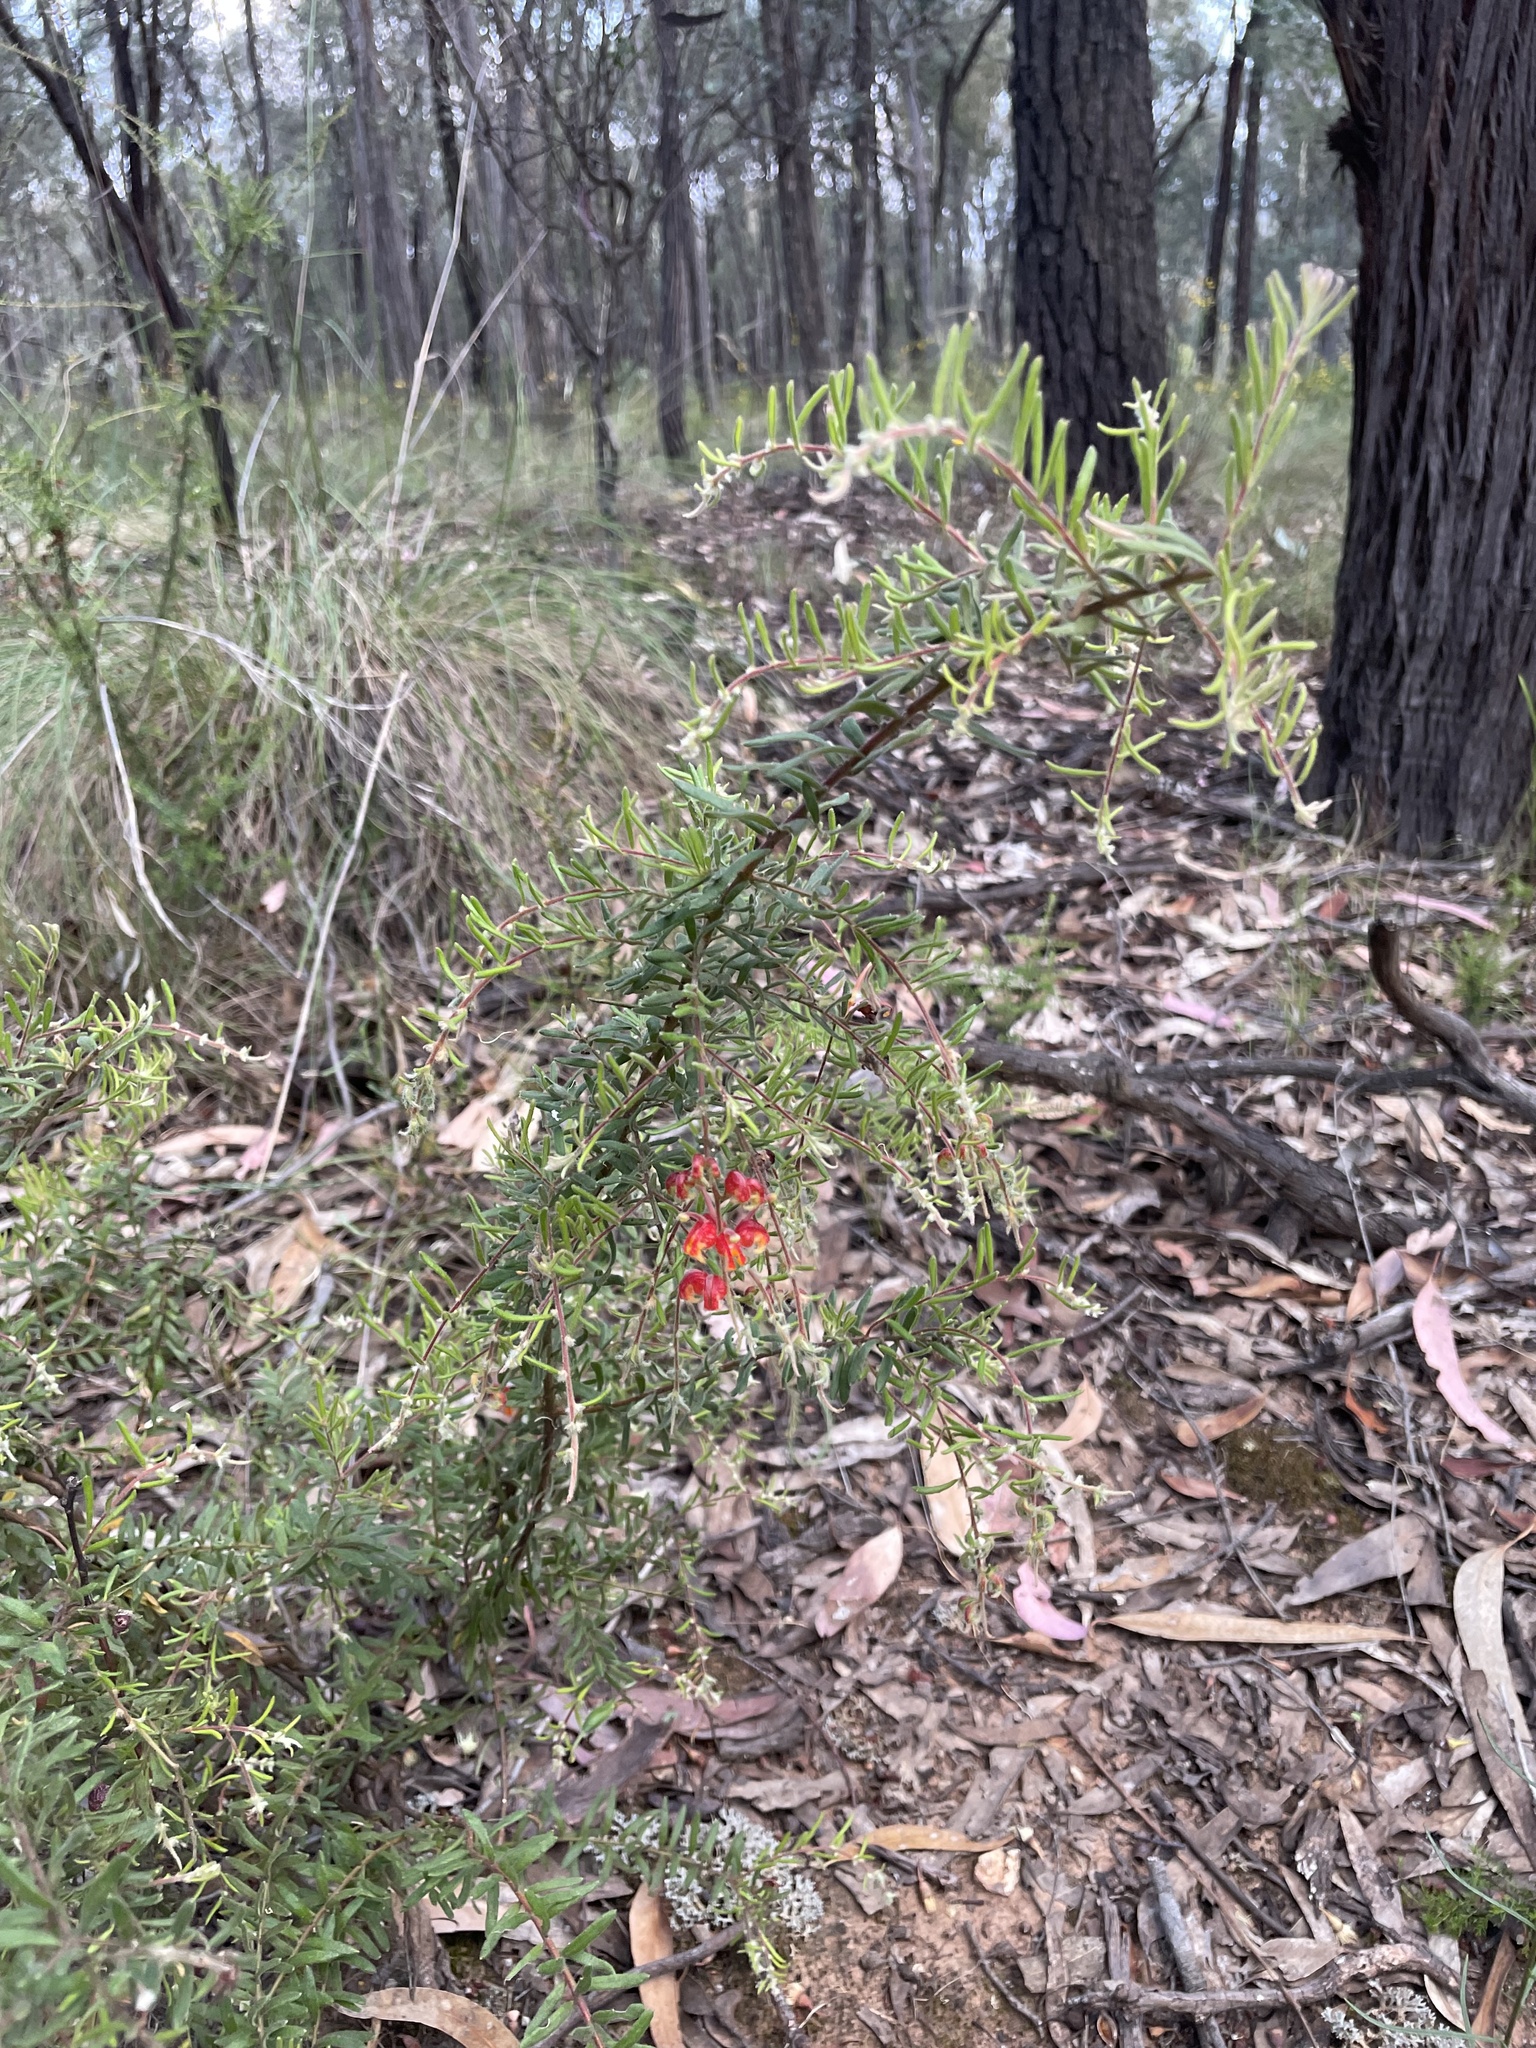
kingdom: Plantae
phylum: Tracheophyta
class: Magnoliopsida
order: Proteales
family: Proteaceae
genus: Grevillea
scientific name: Grevillea alpina
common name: Catclaws grevillea
